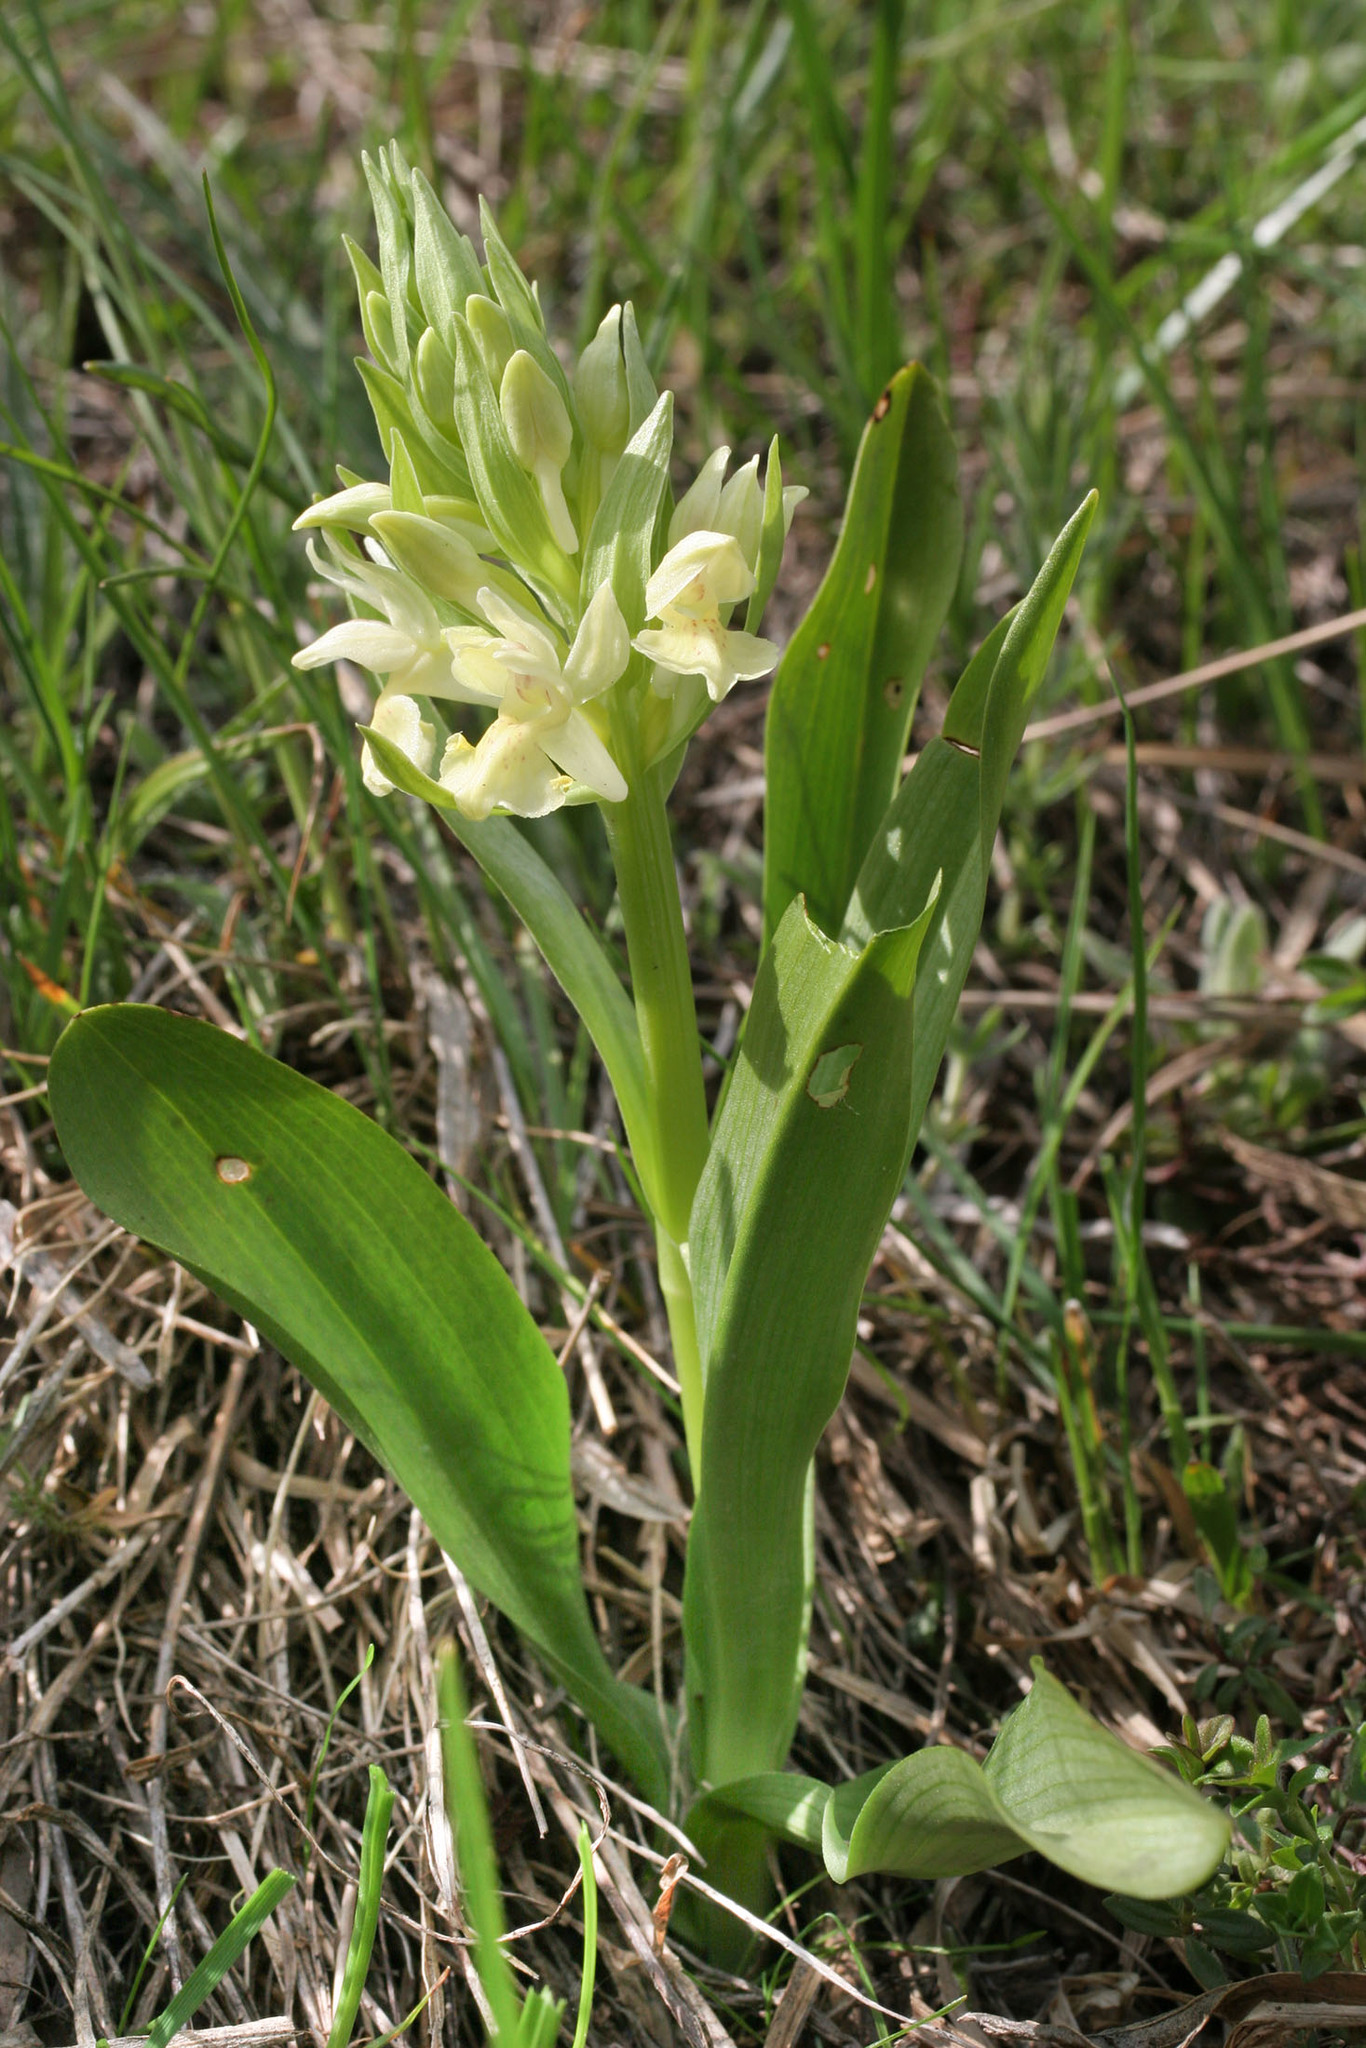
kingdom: Plantae
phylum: Tracheophyta
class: Liliopsida
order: Asparagales
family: Orchidaceae
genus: Dactylorhiza
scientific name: Dactylorhiza sambucina
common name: Elder-flowered orchid
